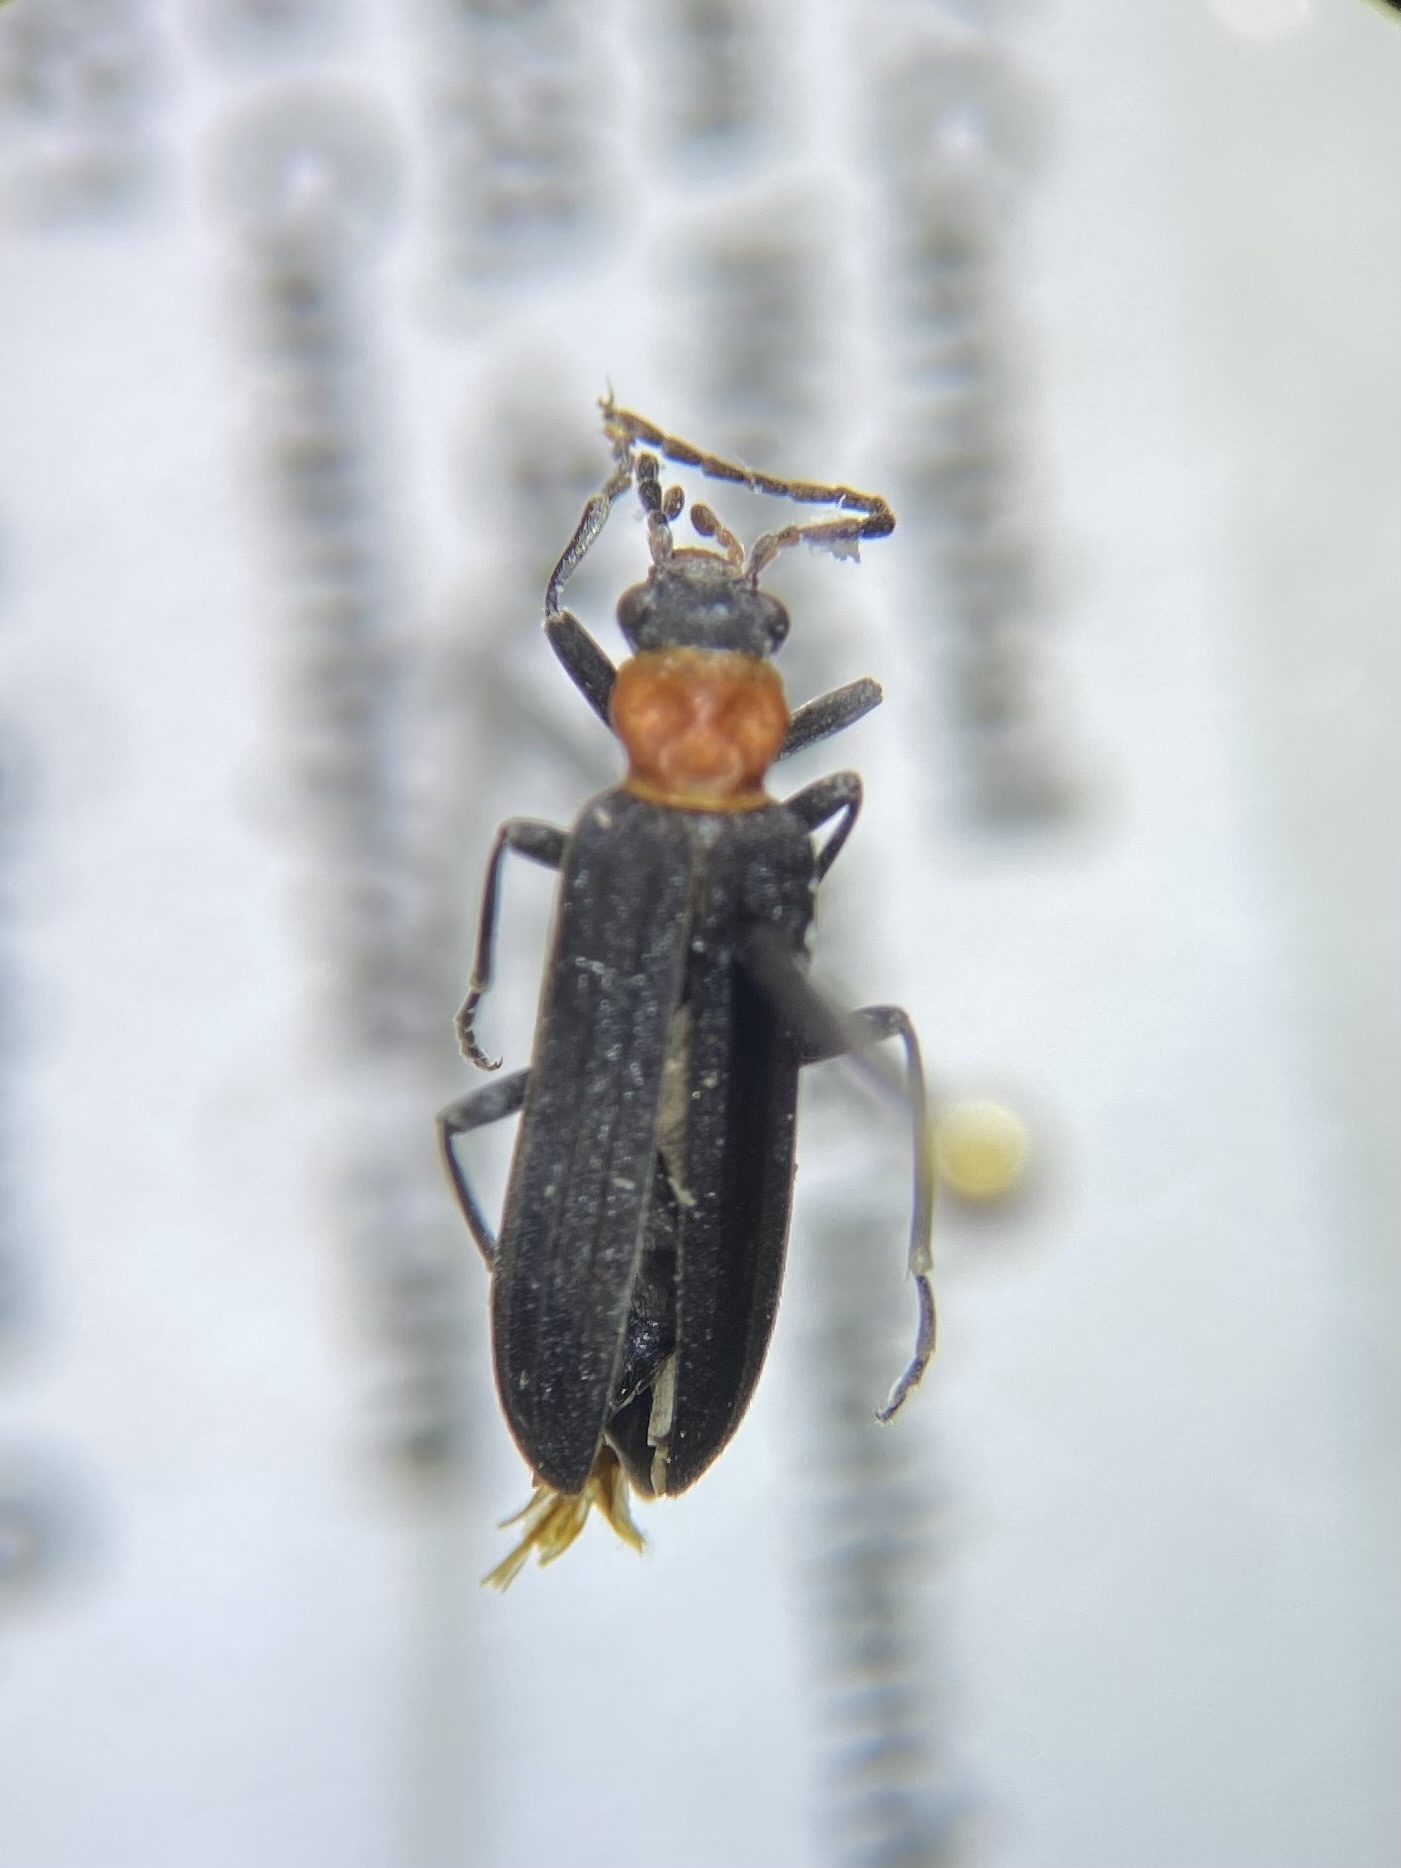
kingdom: Animalia
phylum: Arthropoda
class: Insecta
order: Coleoptera
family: Oedemeridae
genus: Ischnomera
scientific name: Ischnomera
